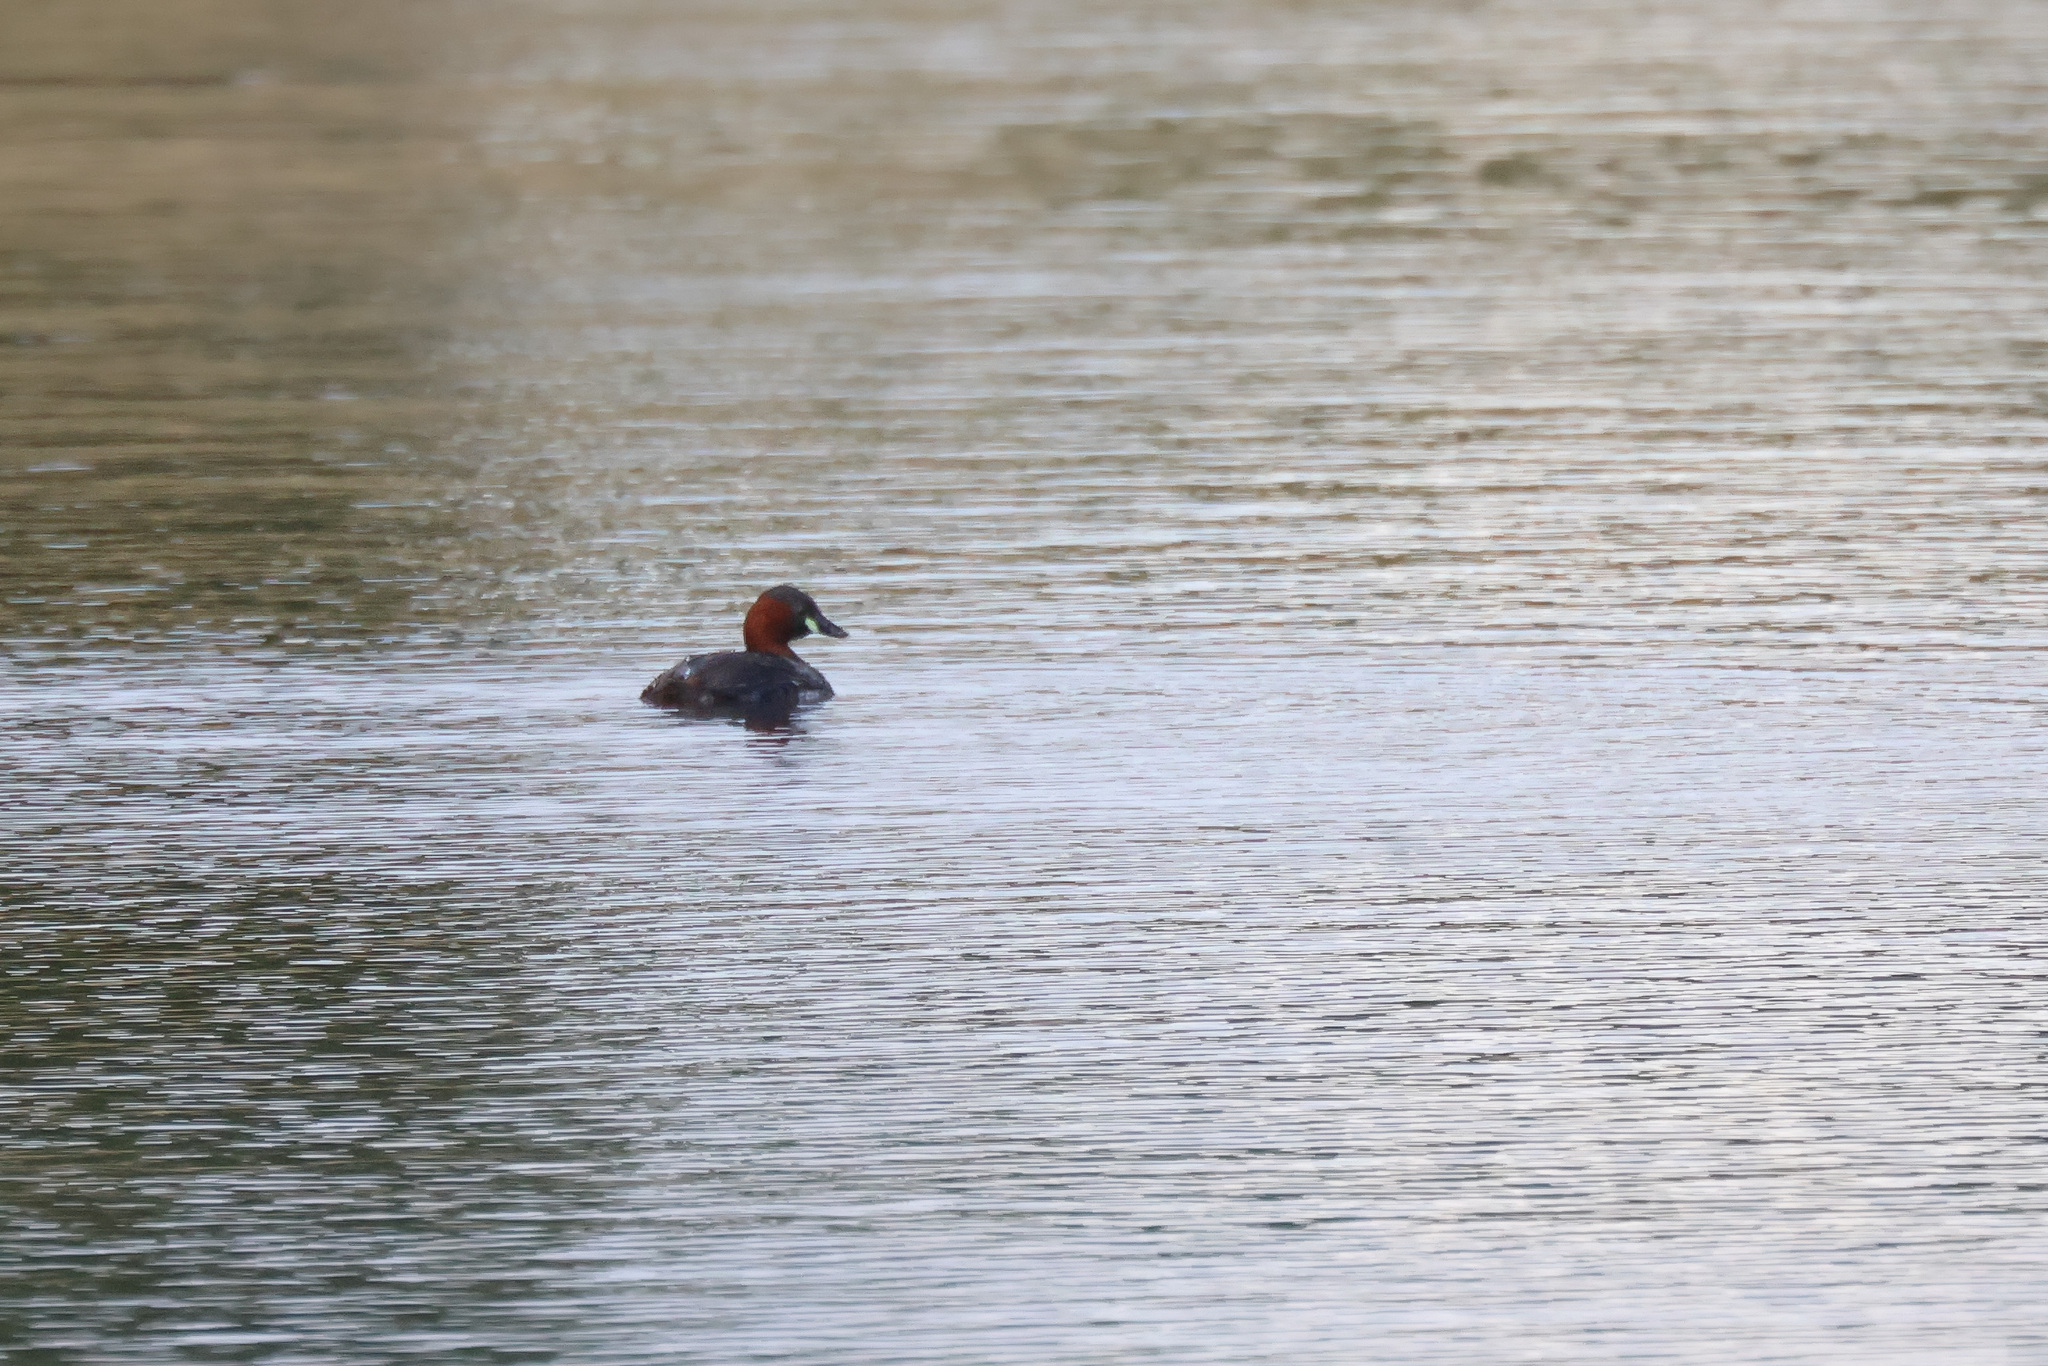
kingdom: Animalia
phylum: Chordata
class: Aves
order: Podicipediformes
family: Podicipedidae
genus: Tachybaptus
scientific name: Tachybaptus ruficollis
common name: Little grebe
